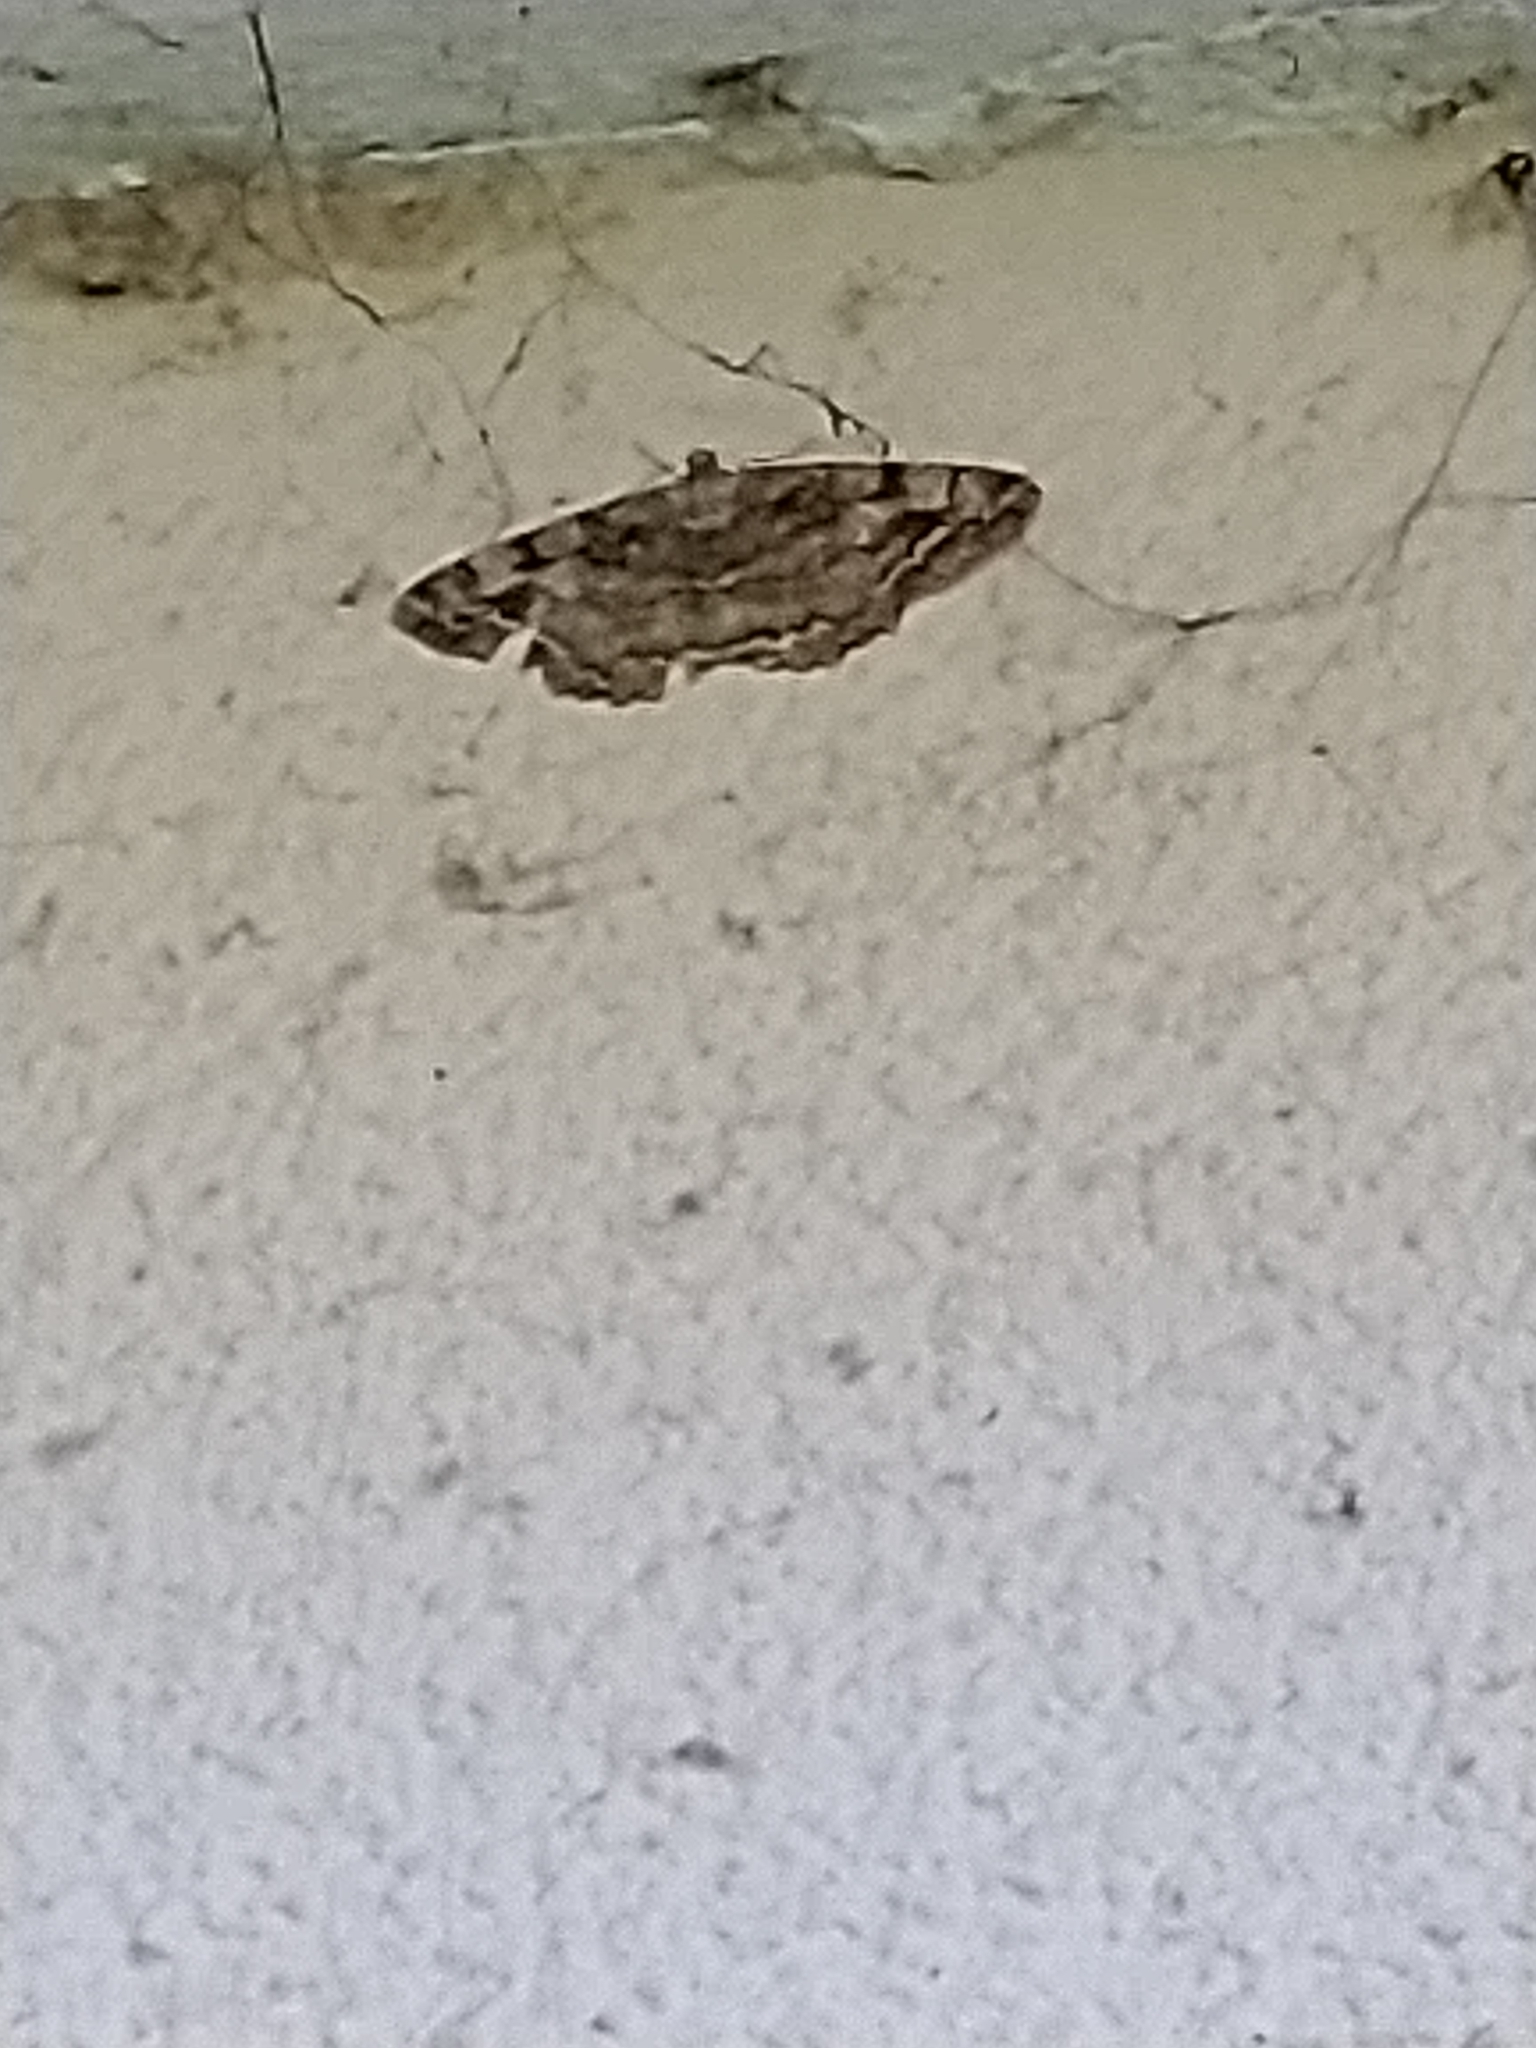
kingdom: Animalia
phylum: Arthropoda
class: Insecta
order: Lepidoptera
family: Geometridae
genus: Alcis
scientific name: Alcis repandata
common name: Mottled beauty
